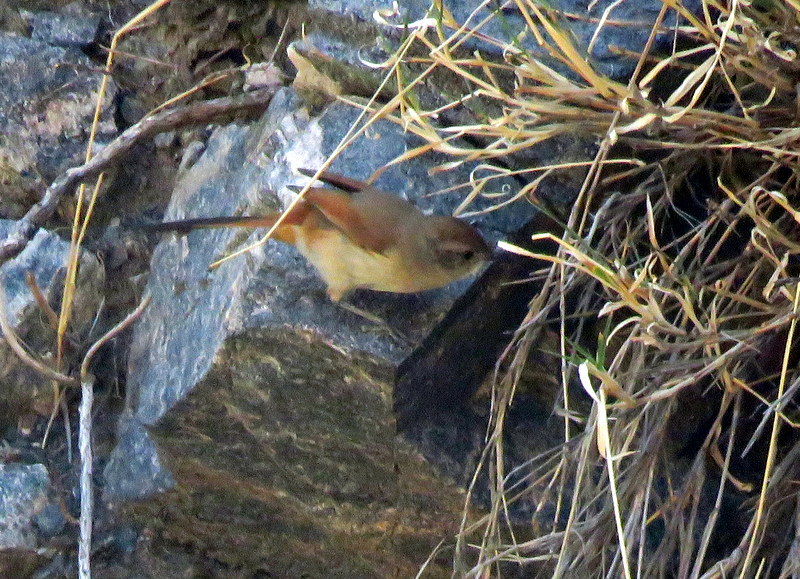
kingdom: Animalia
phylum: Chordata
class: Aves
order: Passeriformes
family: Furnariidae
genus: Asthenes
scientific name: Asthenes dorbignyi
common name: Rusty-vented canastero
